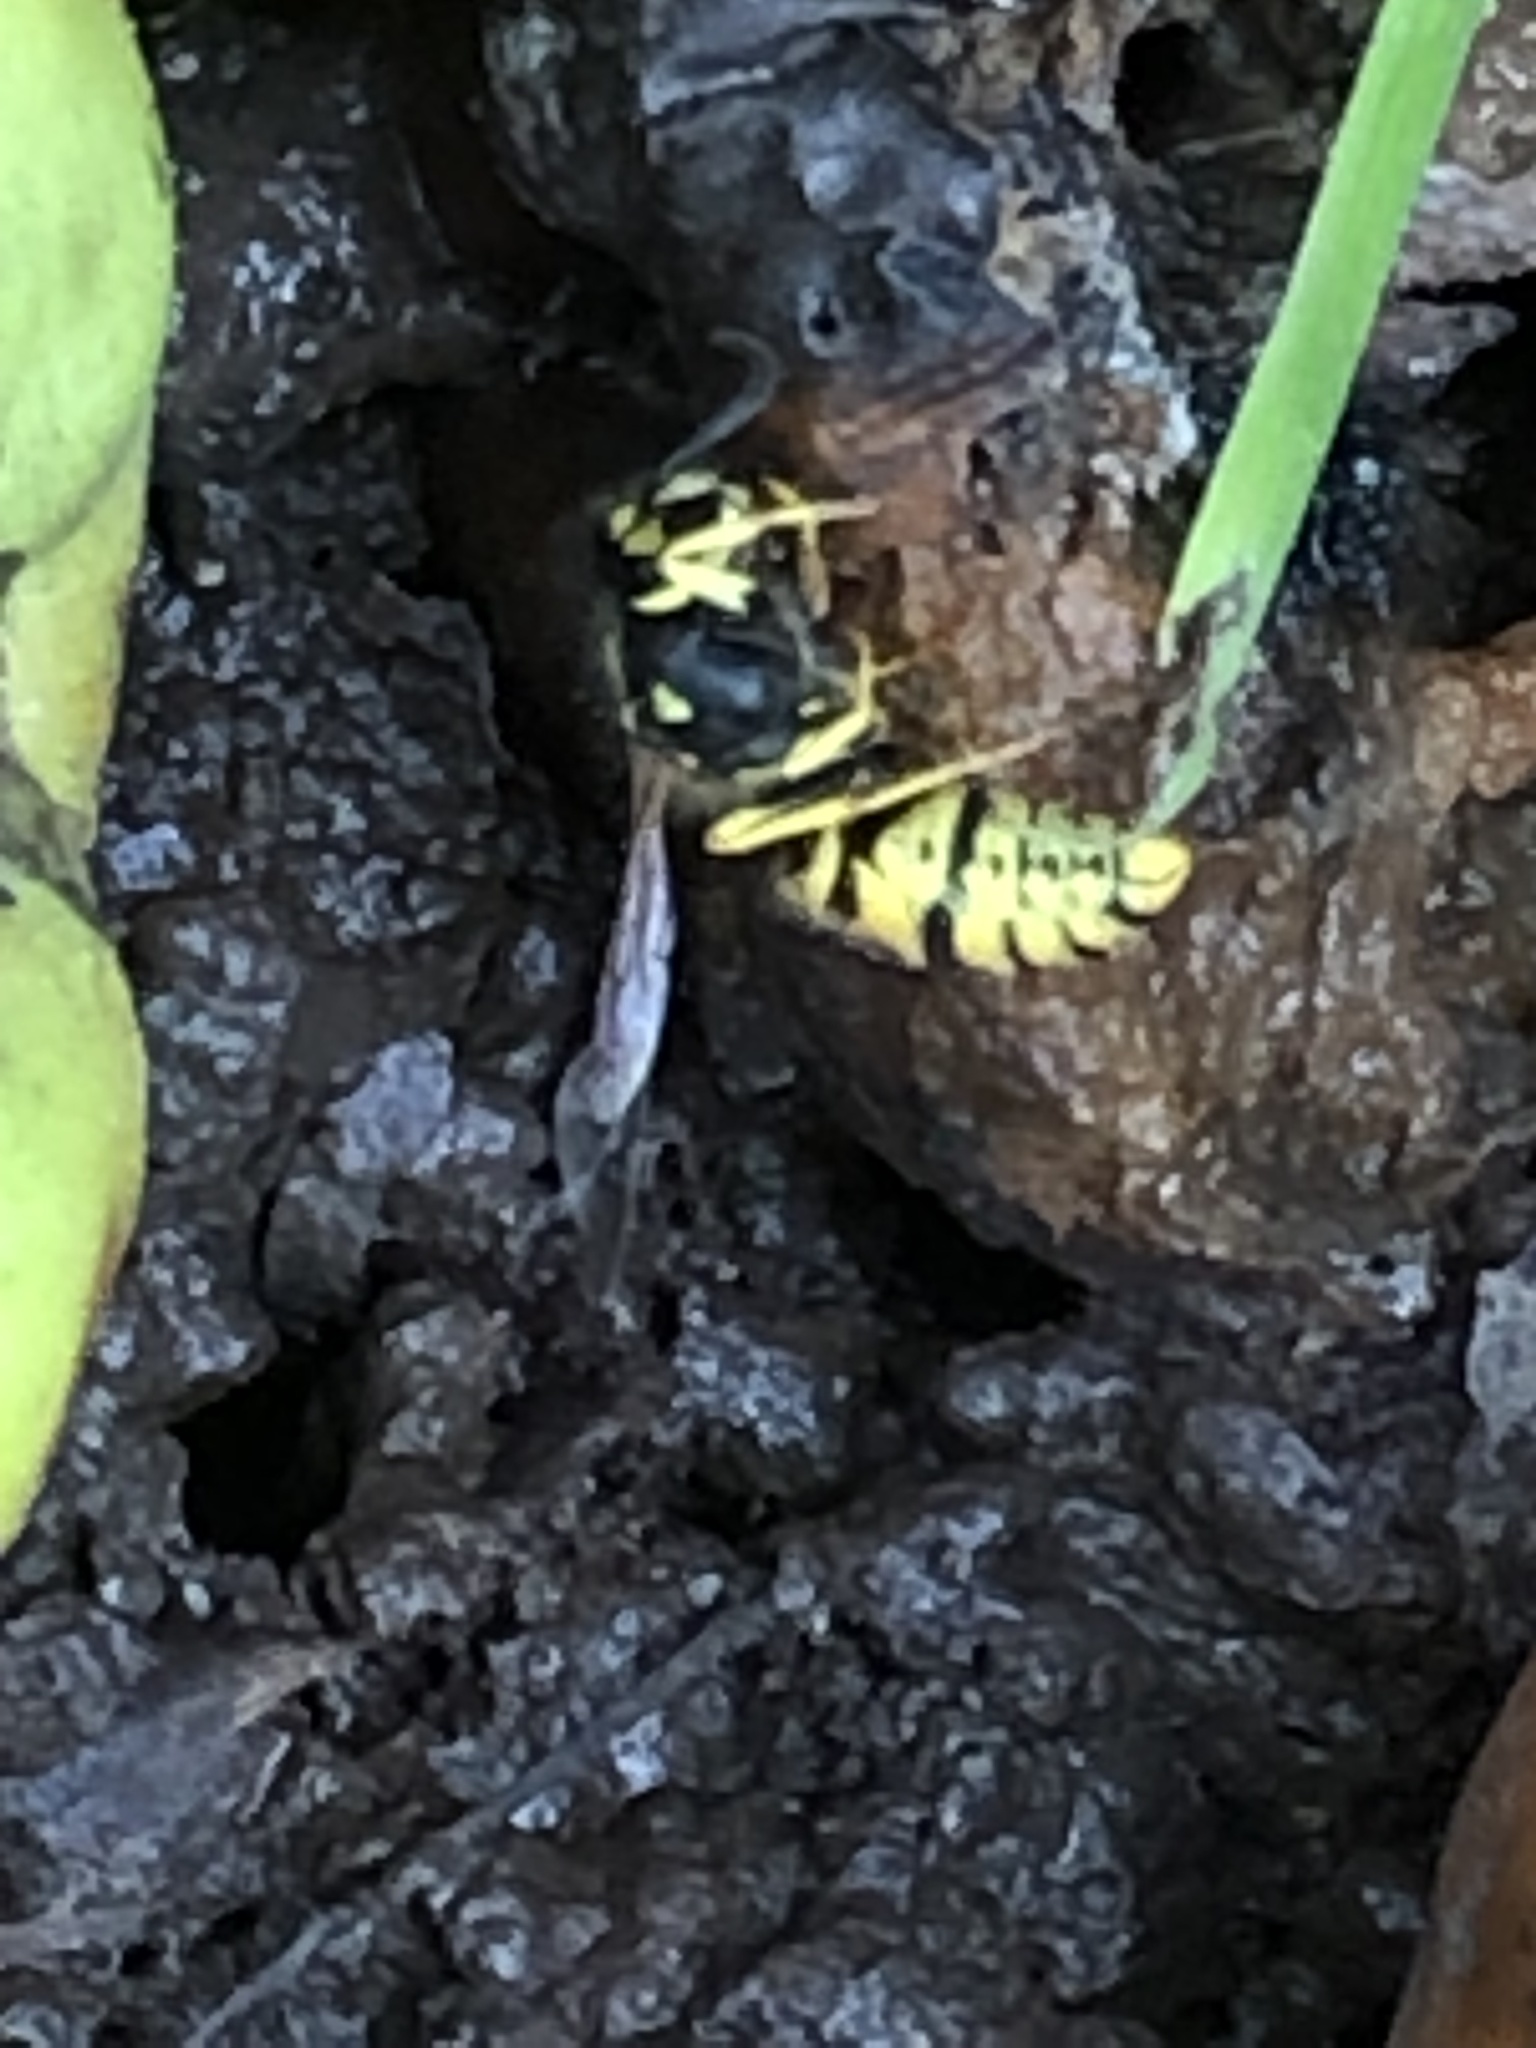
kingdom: Animalia
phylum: Arthropoda
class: Insecta
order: Hymenoptera
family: Vespidae
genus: Vespula
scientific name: Vespula germanica
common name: German wasp
